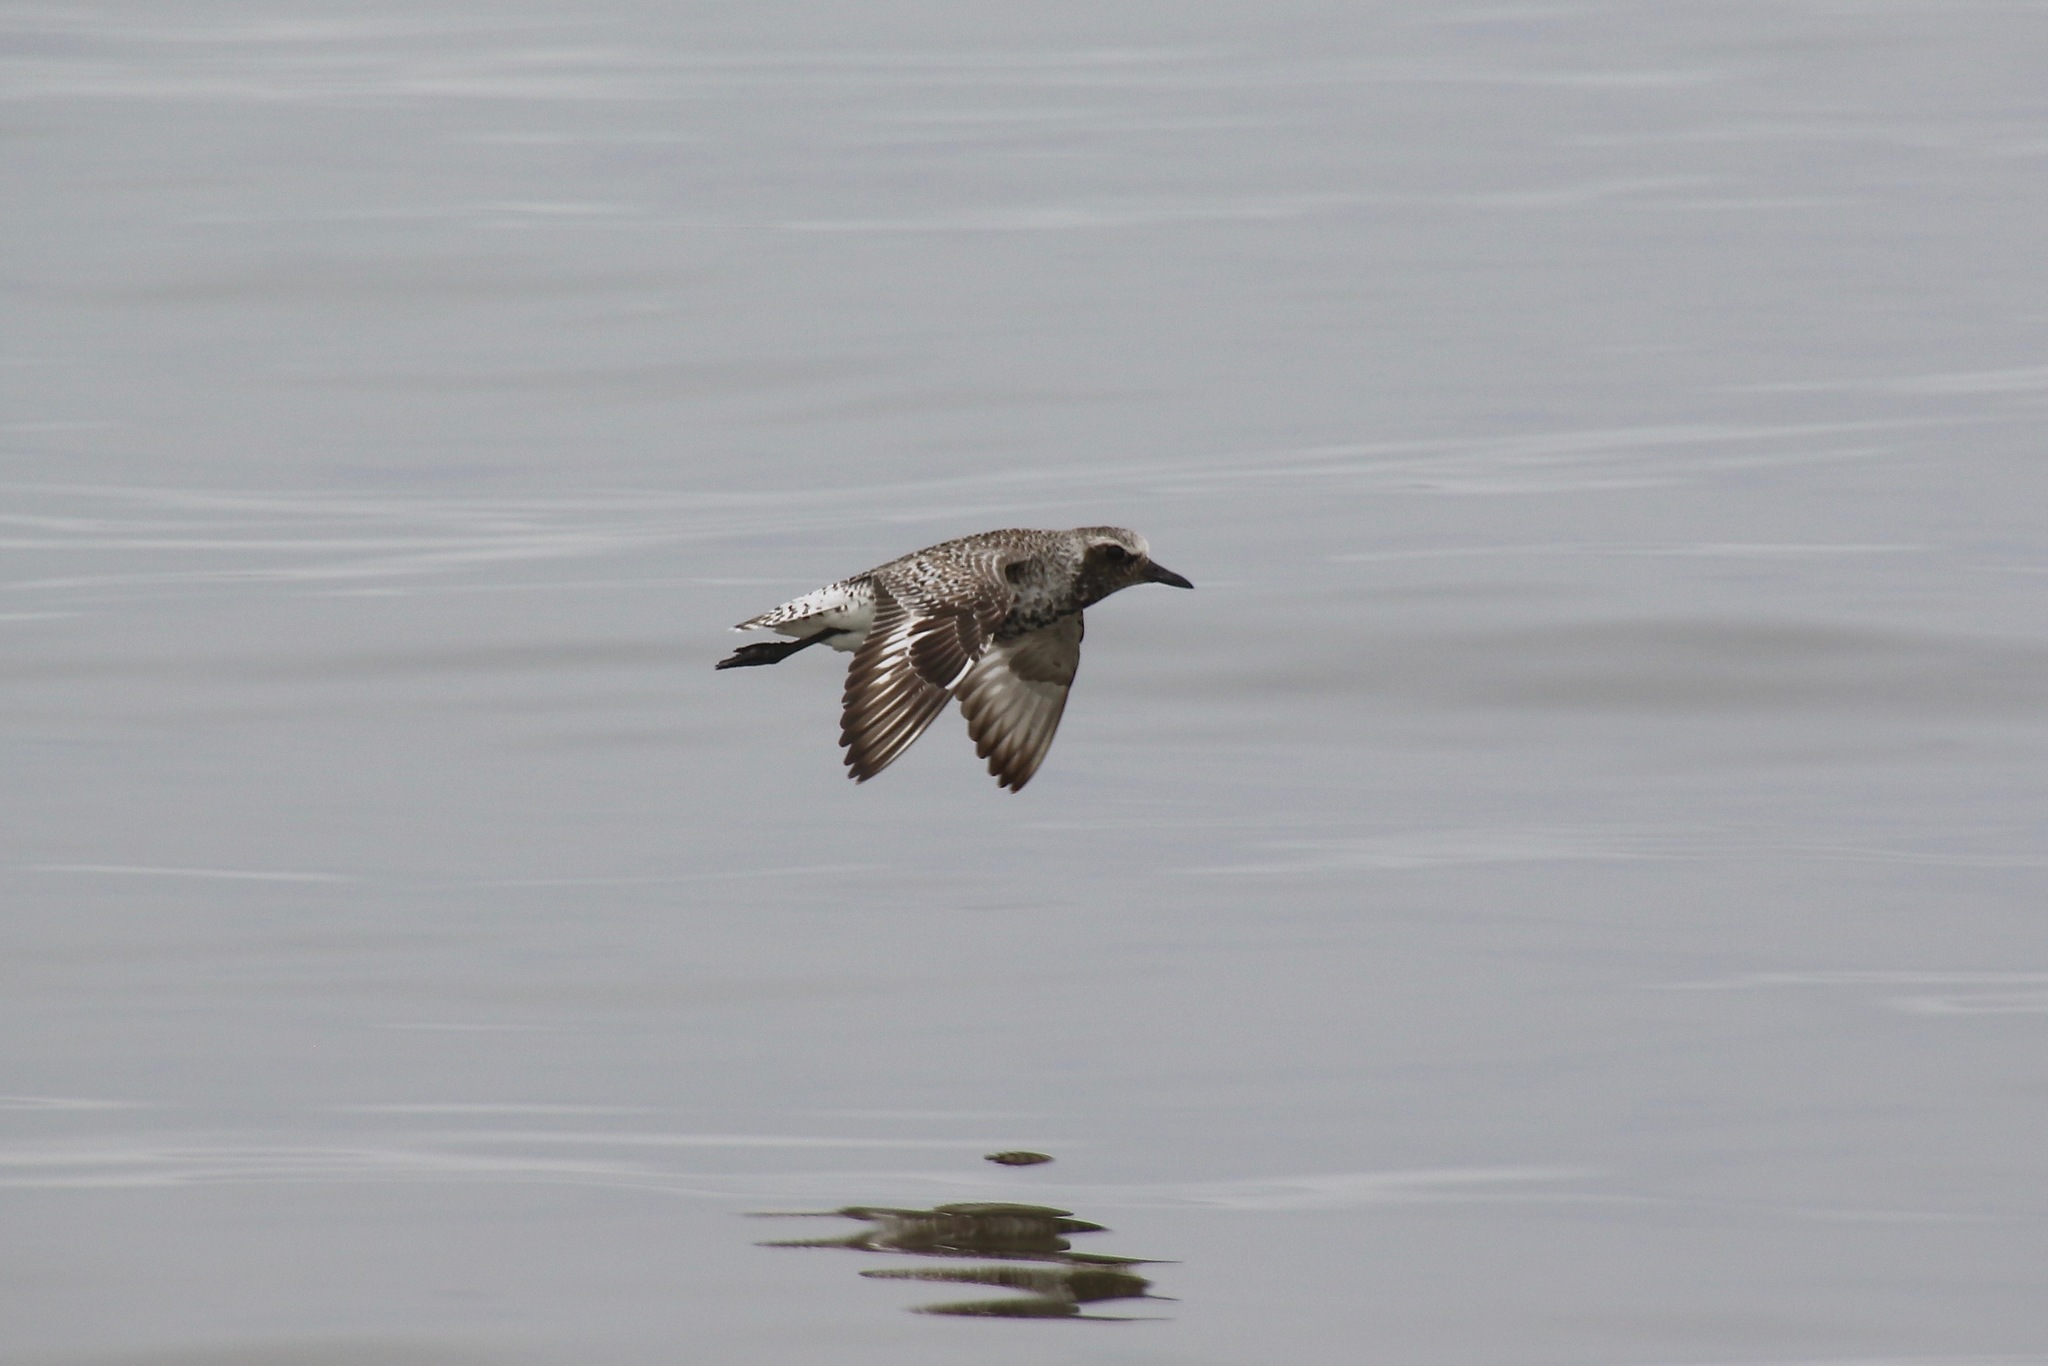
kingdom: Animalia
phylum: Chordata
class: Aves
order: Charadriiformes
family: Charadriidae
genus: Pluvialis
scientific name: Pluvialis squatarola
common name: Grey plover
